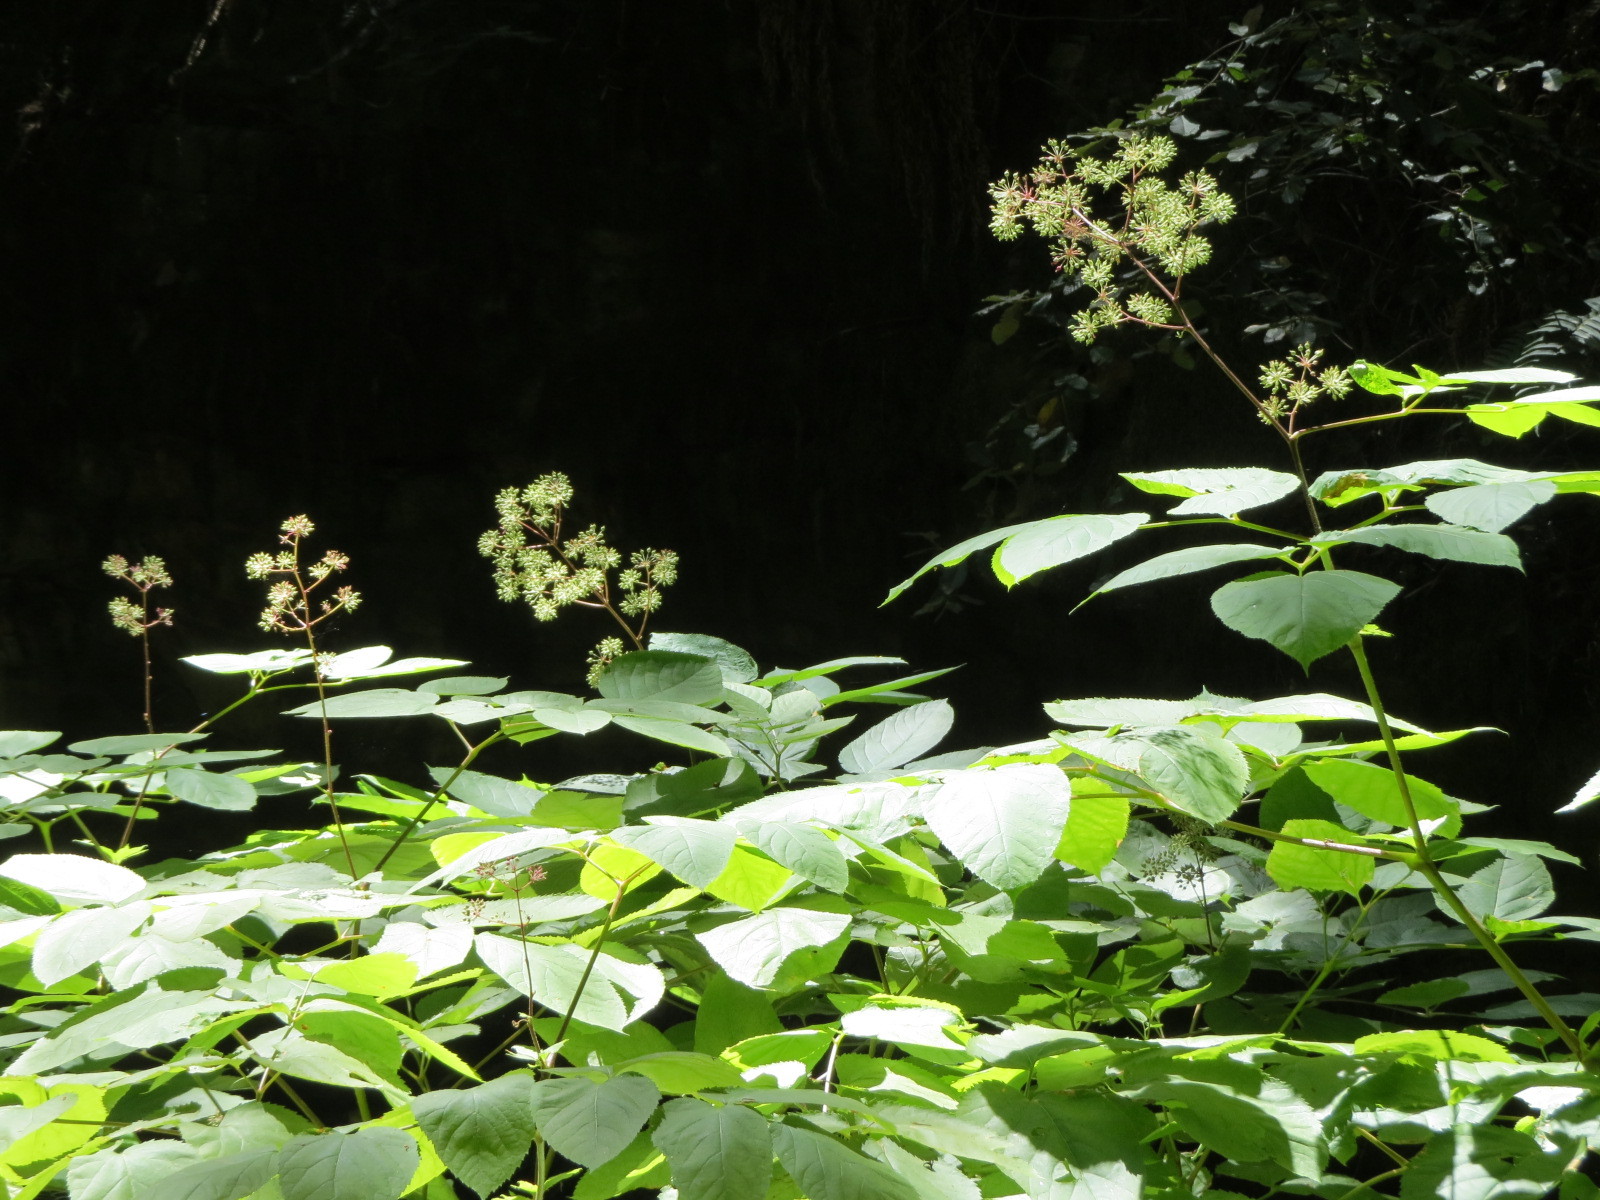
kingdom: Plantae
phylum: Tracheophyta
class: Magnoliopsida
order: Apiales
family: Araliaceae
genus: Aralia
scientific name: Aralia californica
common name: California-ginseng
